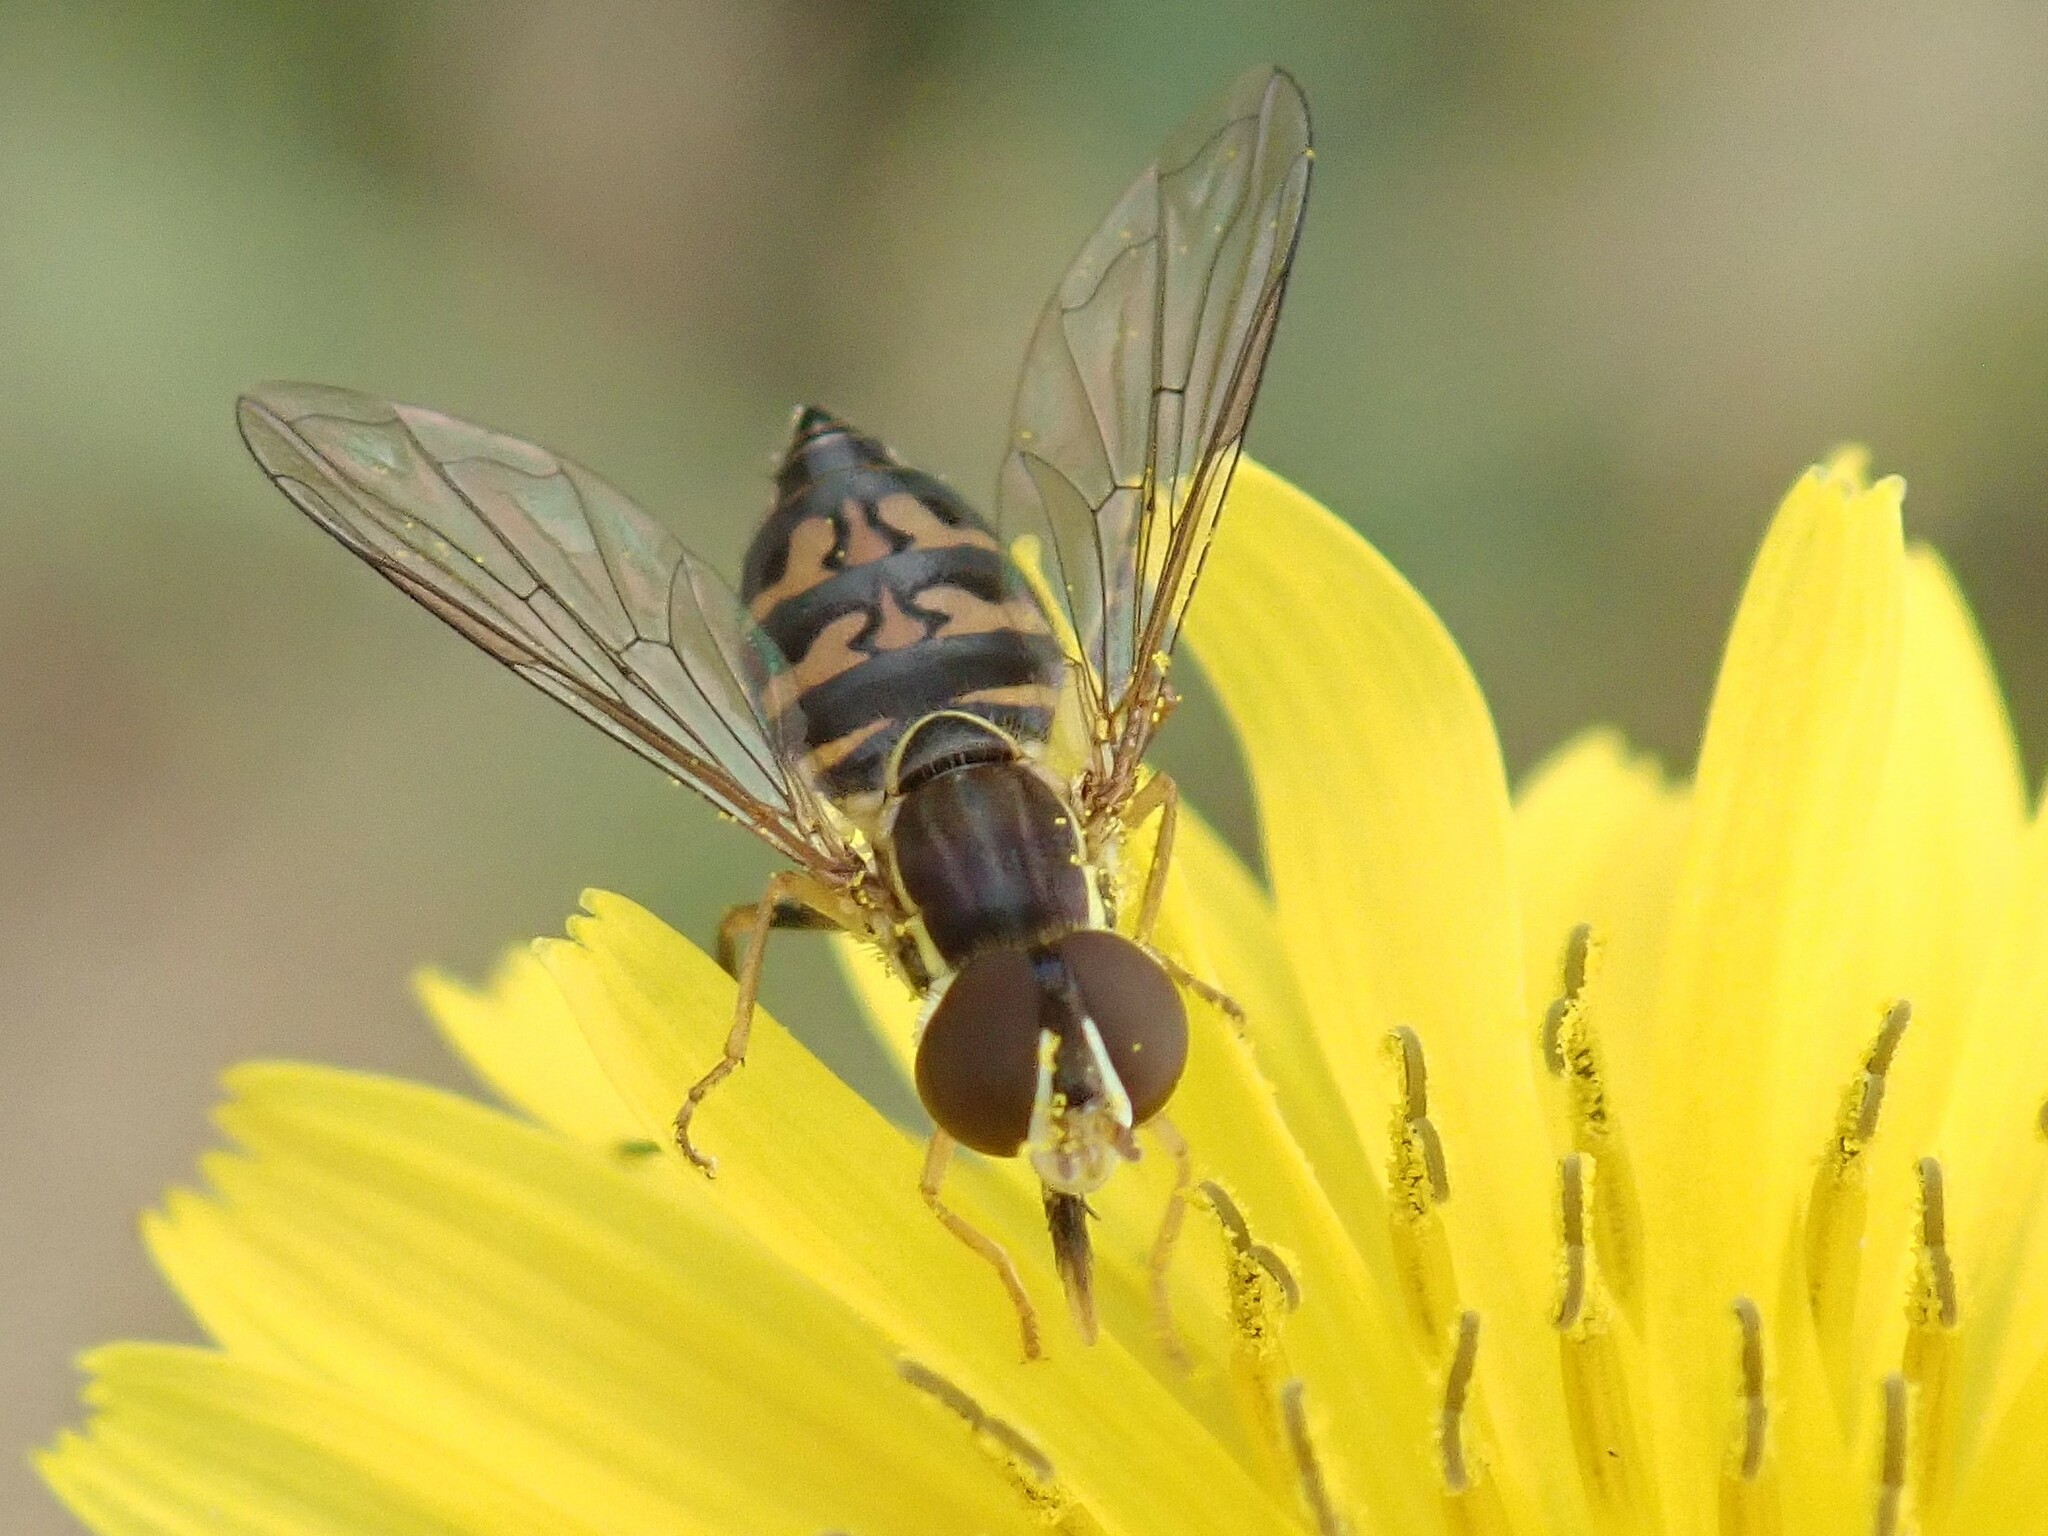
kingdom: Animalia
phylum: Arthropoda
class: Insecta
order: Diptera
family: Syrphidae
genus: Toxomerus
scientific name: Toxomerus occidentalis
